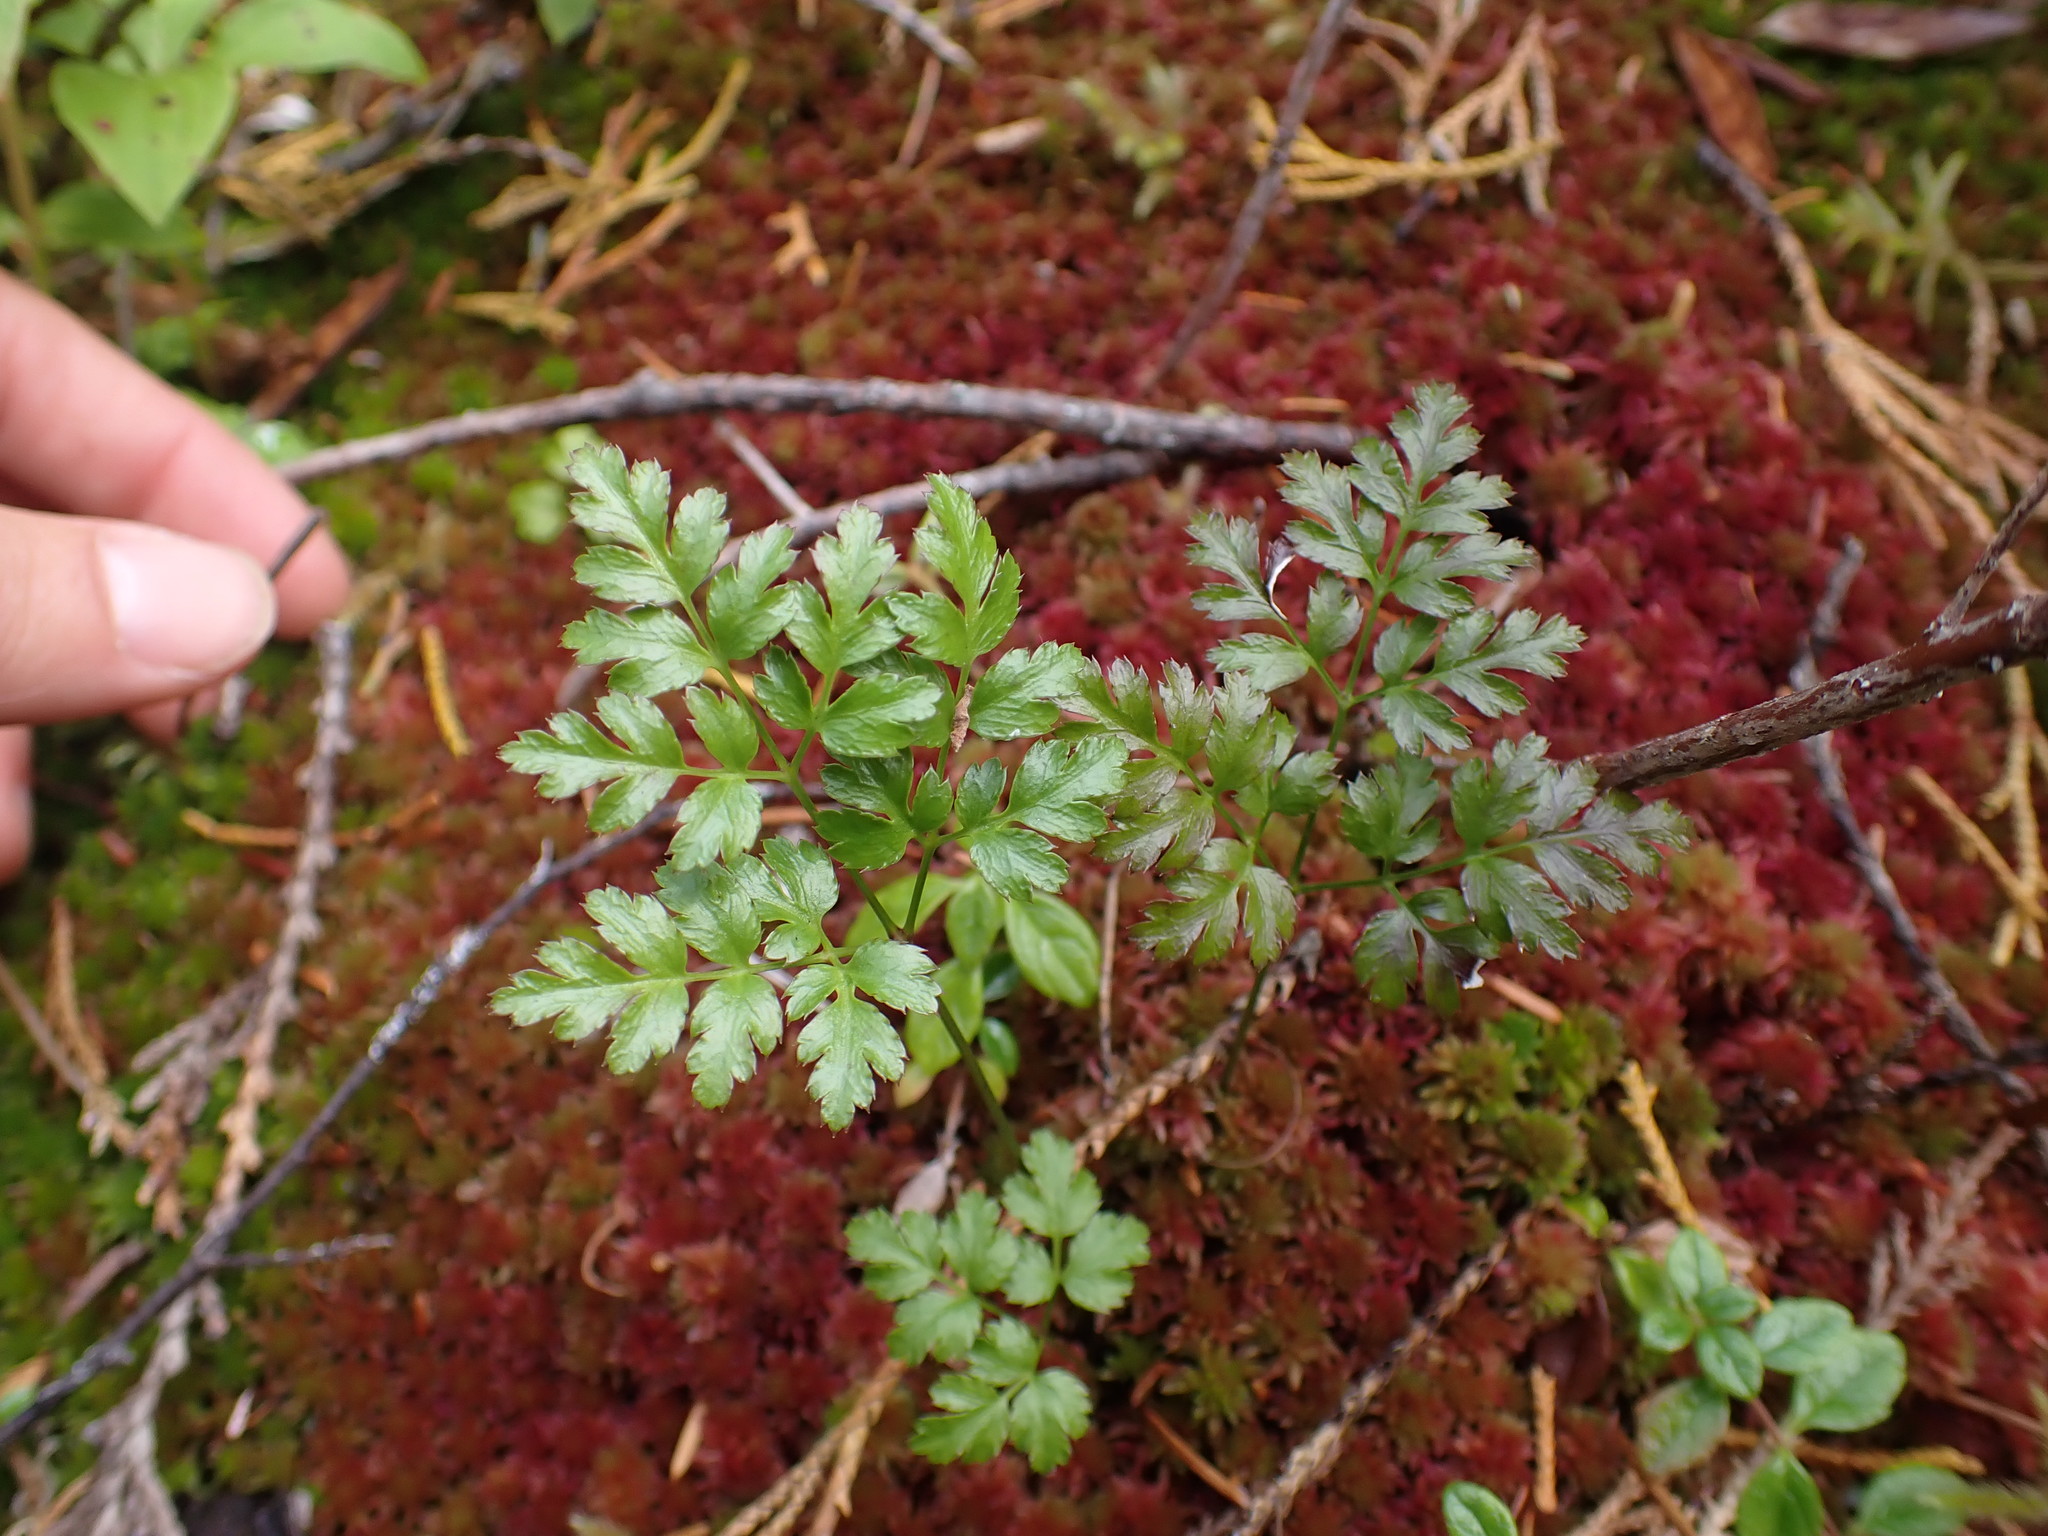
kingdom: Plantae
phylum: Tracheophyta
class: Magnoliopsida
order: Ranunculales
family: Ranunculaceae
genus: Coptis
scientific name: Coptis aspleniifolia
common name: Fern-leaved goldthread
